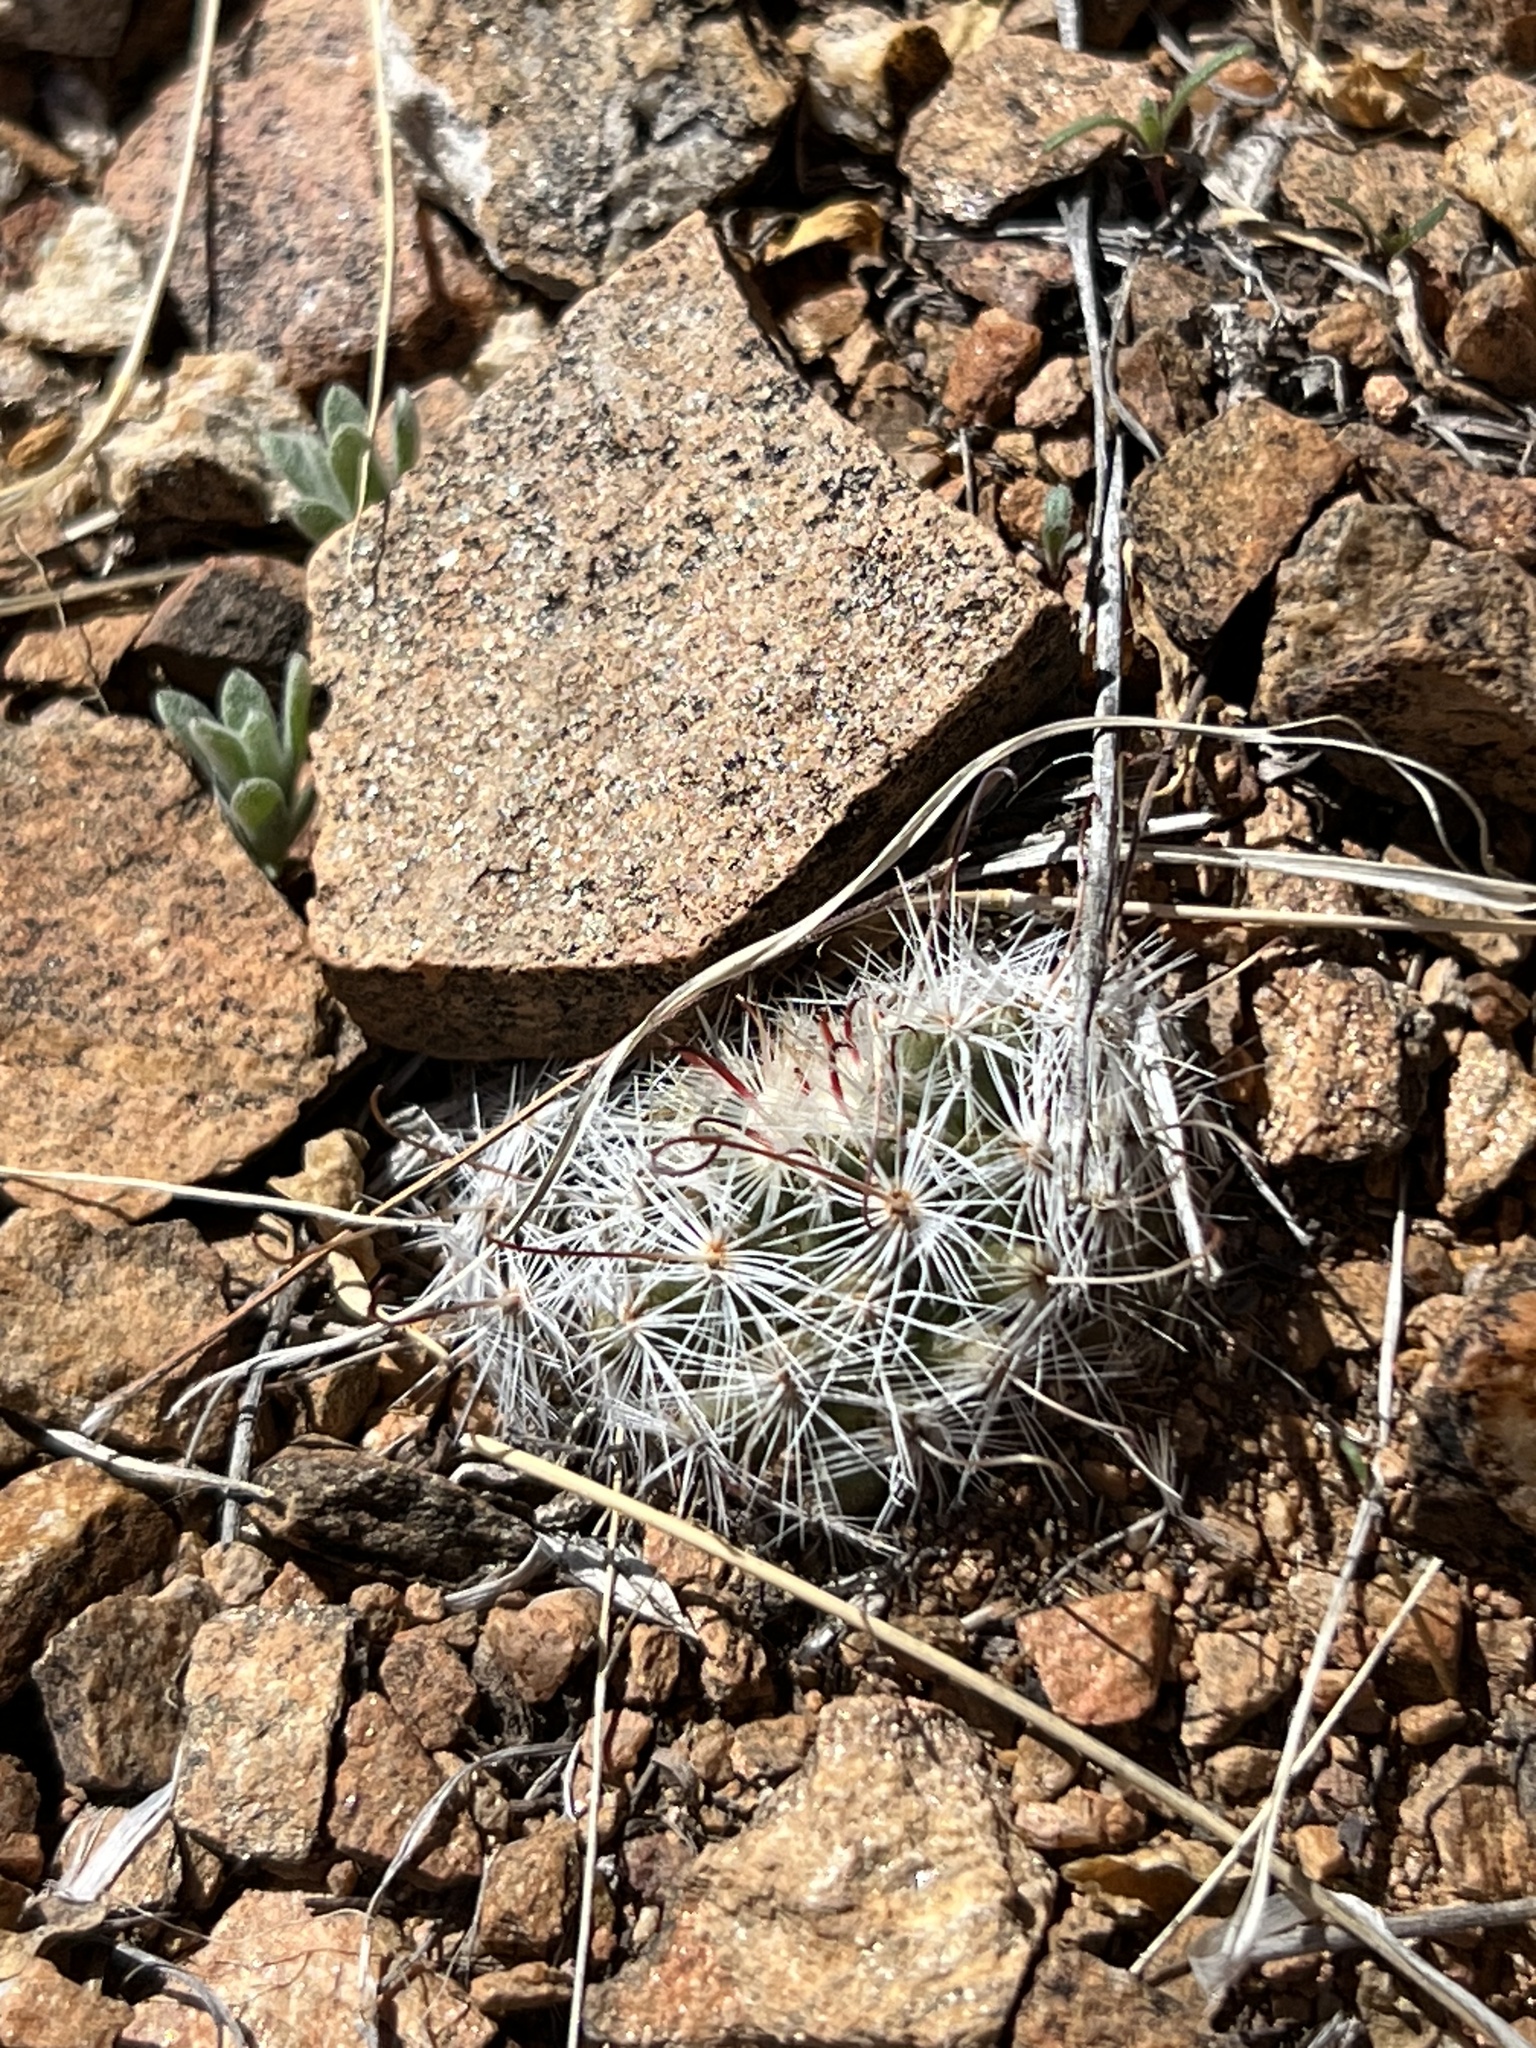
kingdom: Plantae
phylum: Tracheophyta
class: Magnoliopsida
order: Caryophyllales
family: Cactaceae
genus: Cochemiea
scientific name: Cochemiea grahamii
